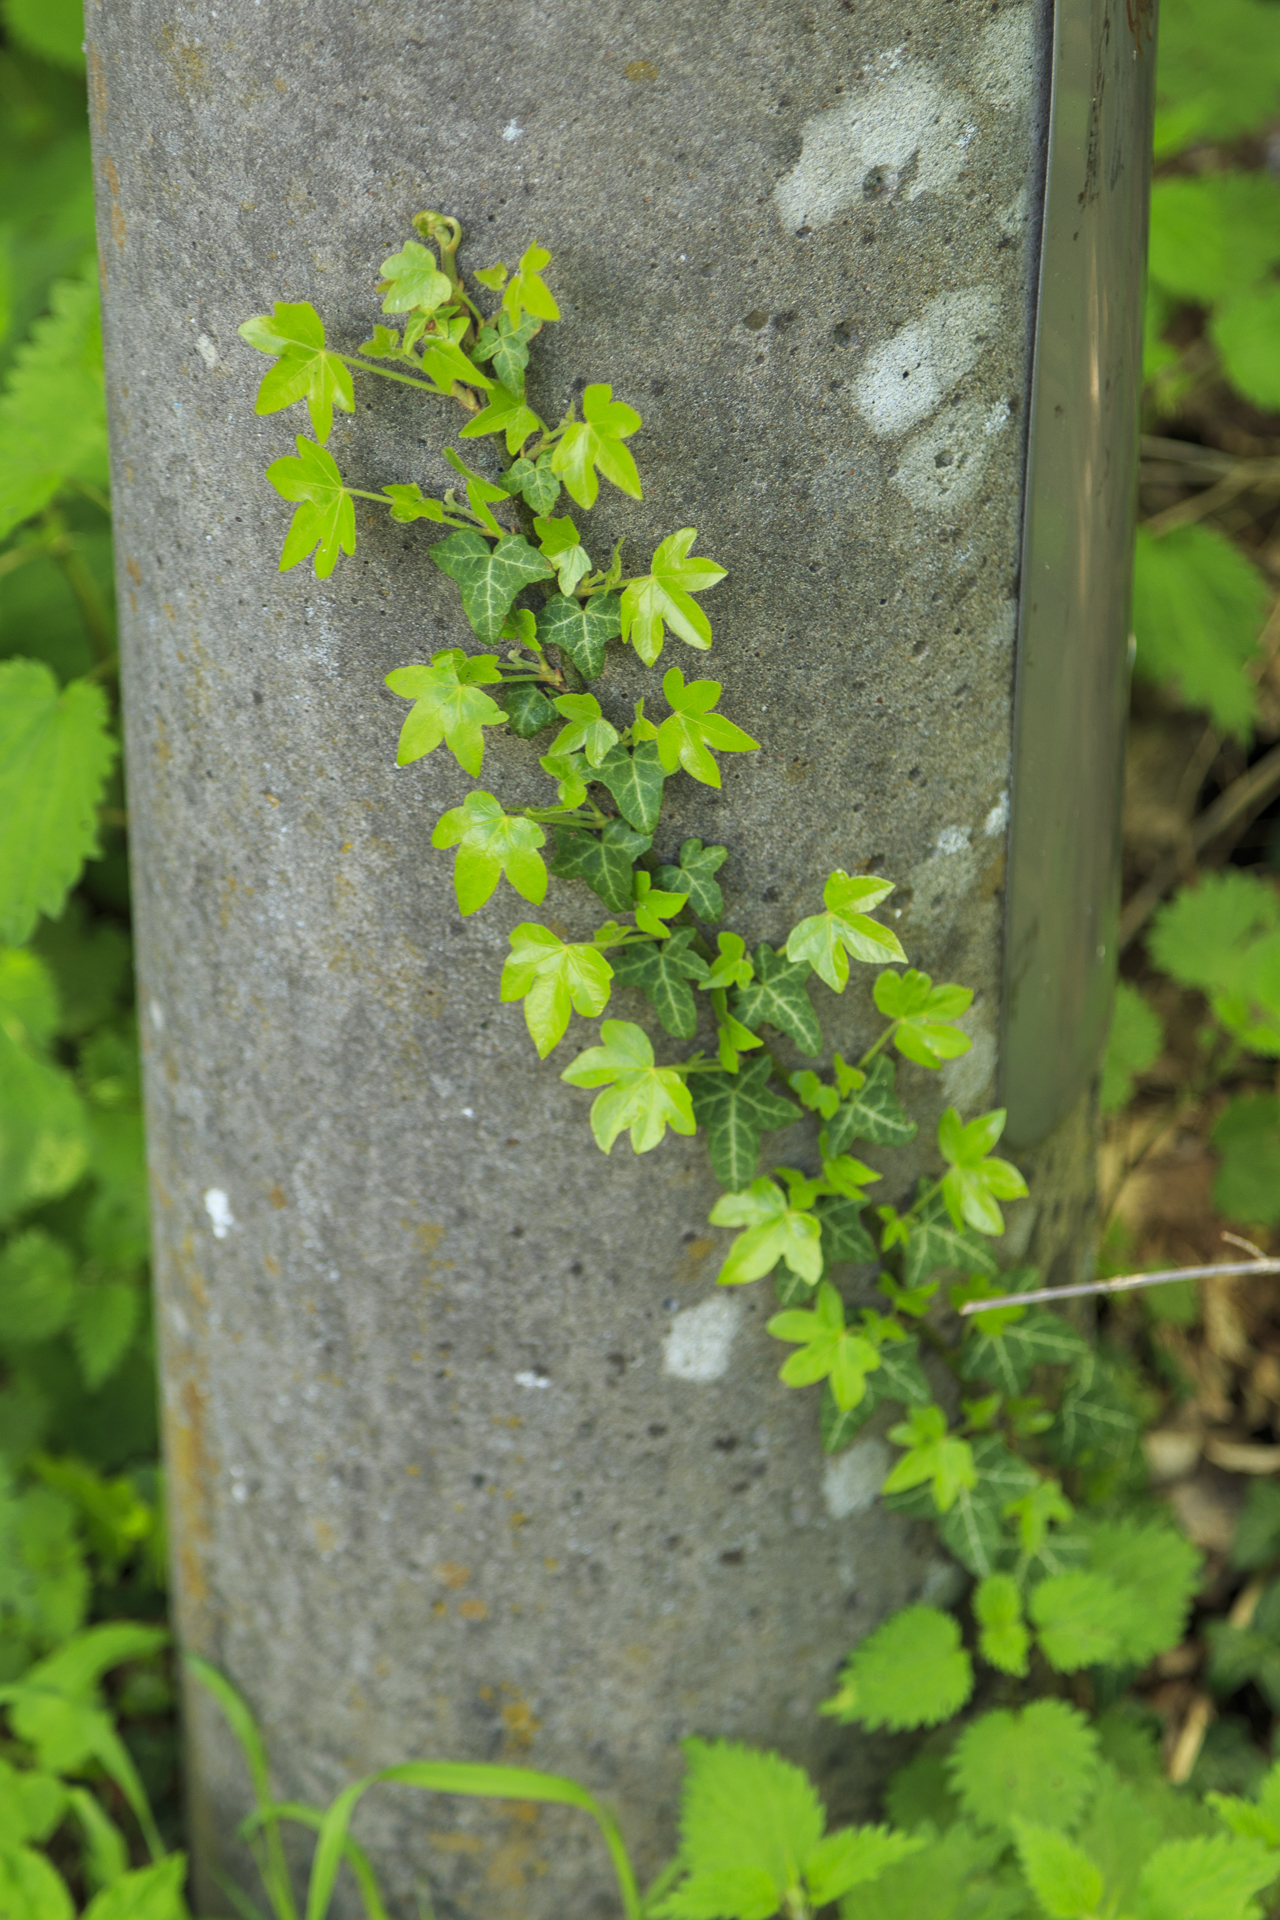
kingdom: Plantae
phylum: Tracheophyta
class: Magnoliopsida
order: Apiales
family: Araliaceae
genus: Hedera
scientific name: Hedera helix
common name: Ivy
